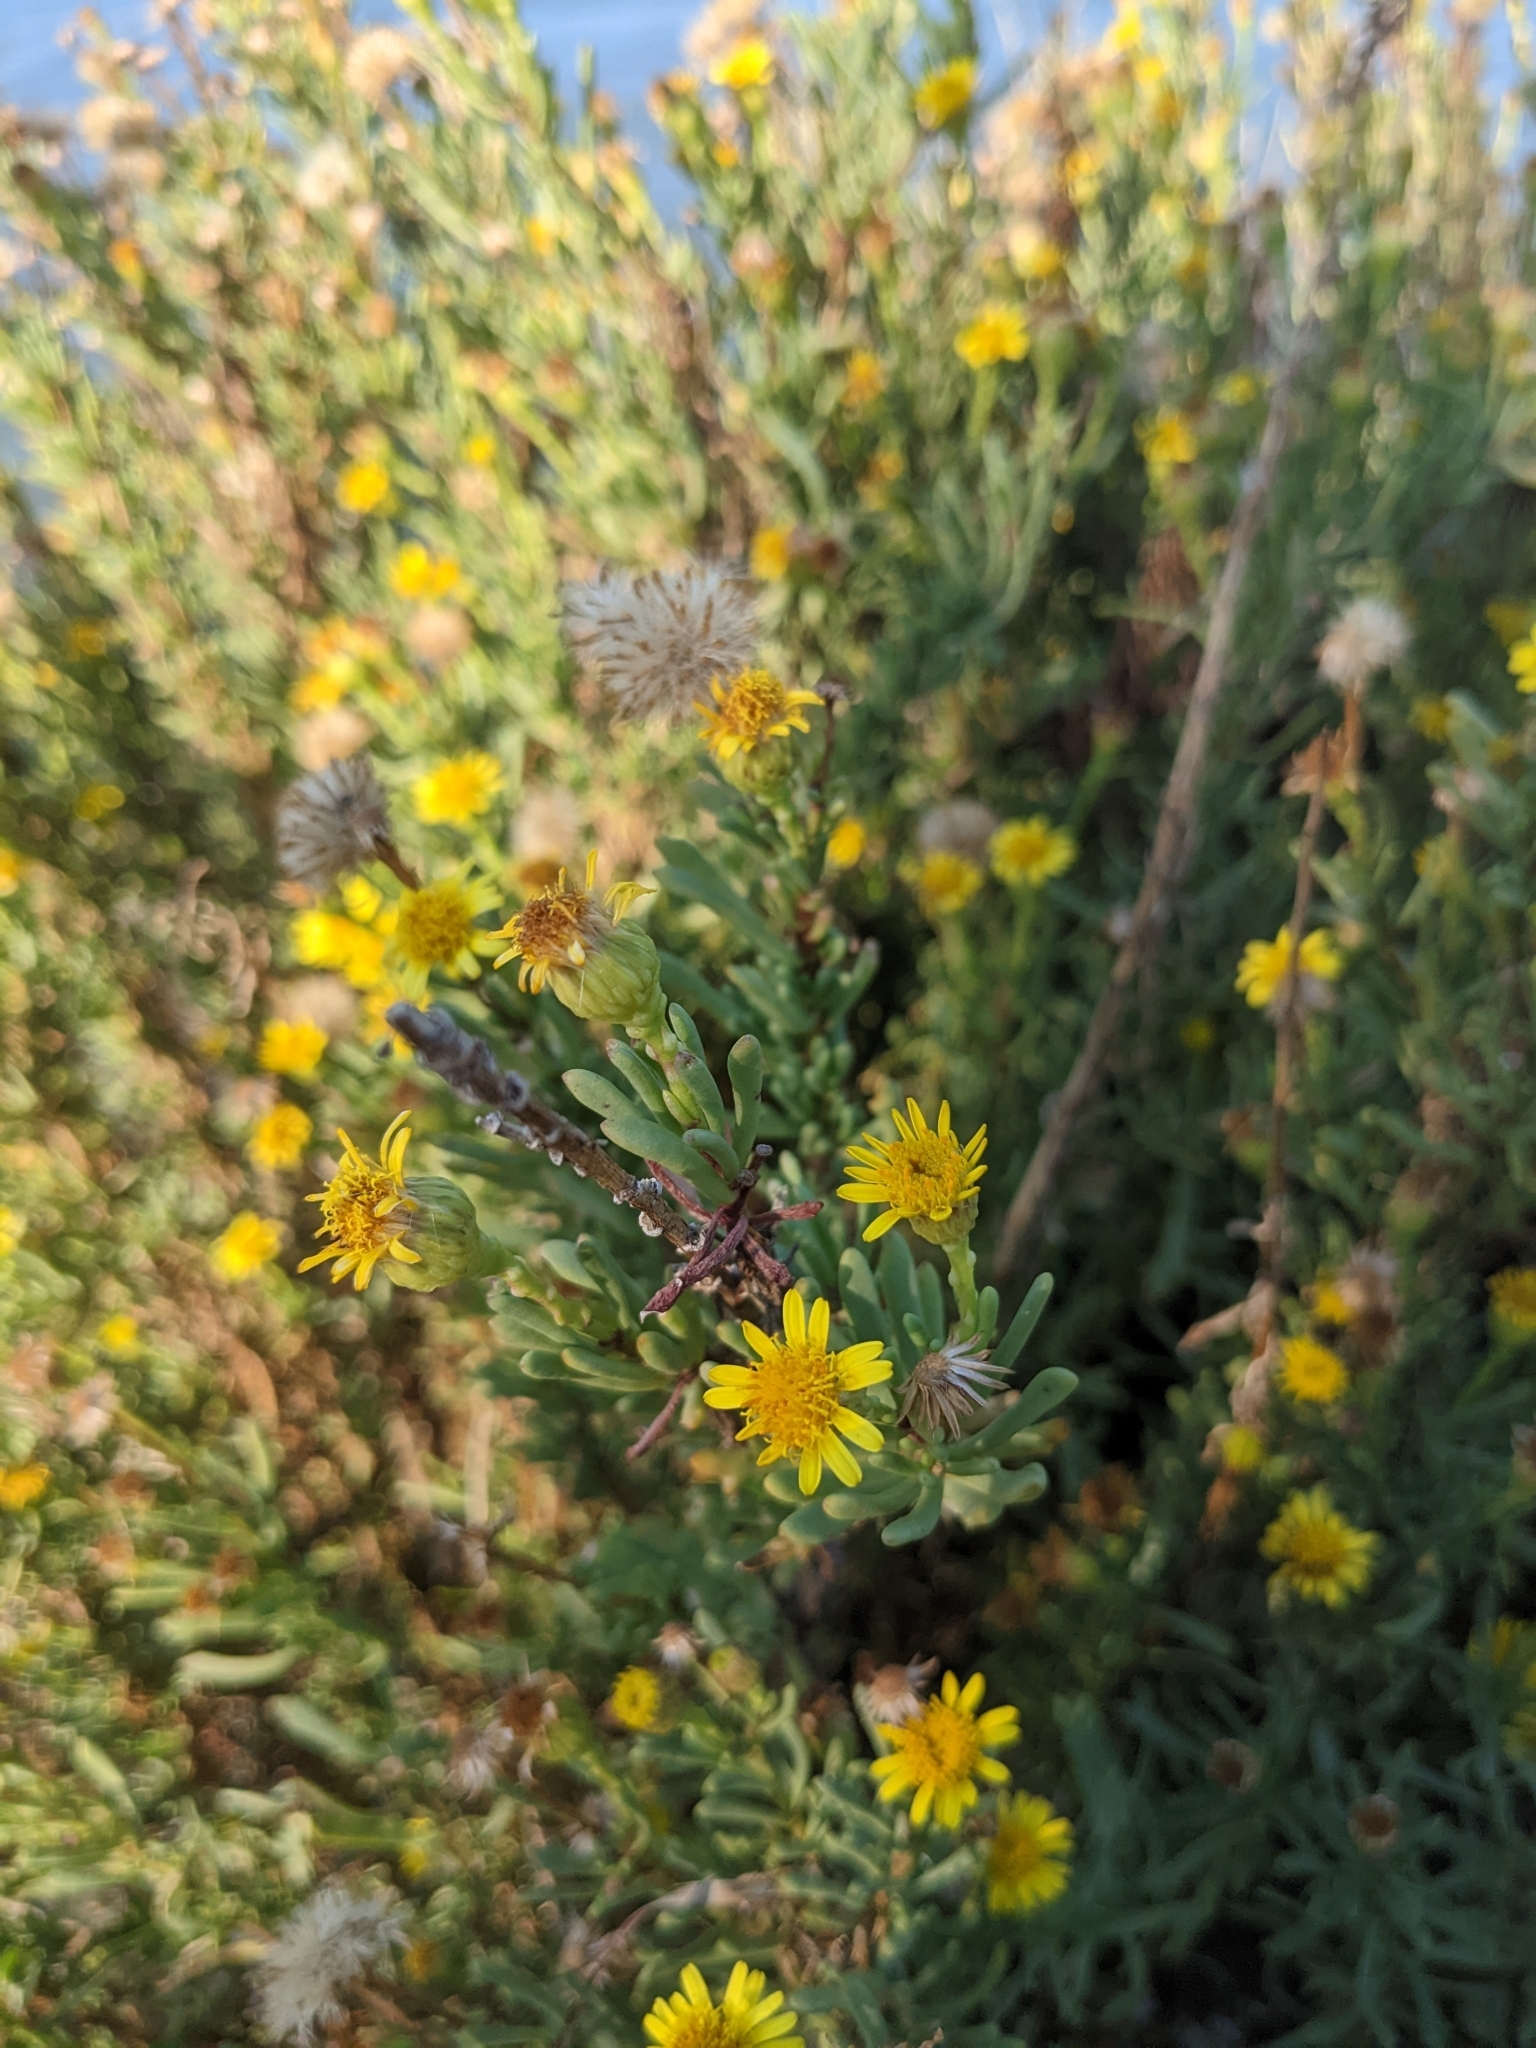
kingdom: Plantae
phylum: Tracheophyta
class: Magnoliopsida
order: Asterales
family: Asteraceae
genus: Limbarda
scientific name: Limbarda crithmoides
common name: Golden samphire
